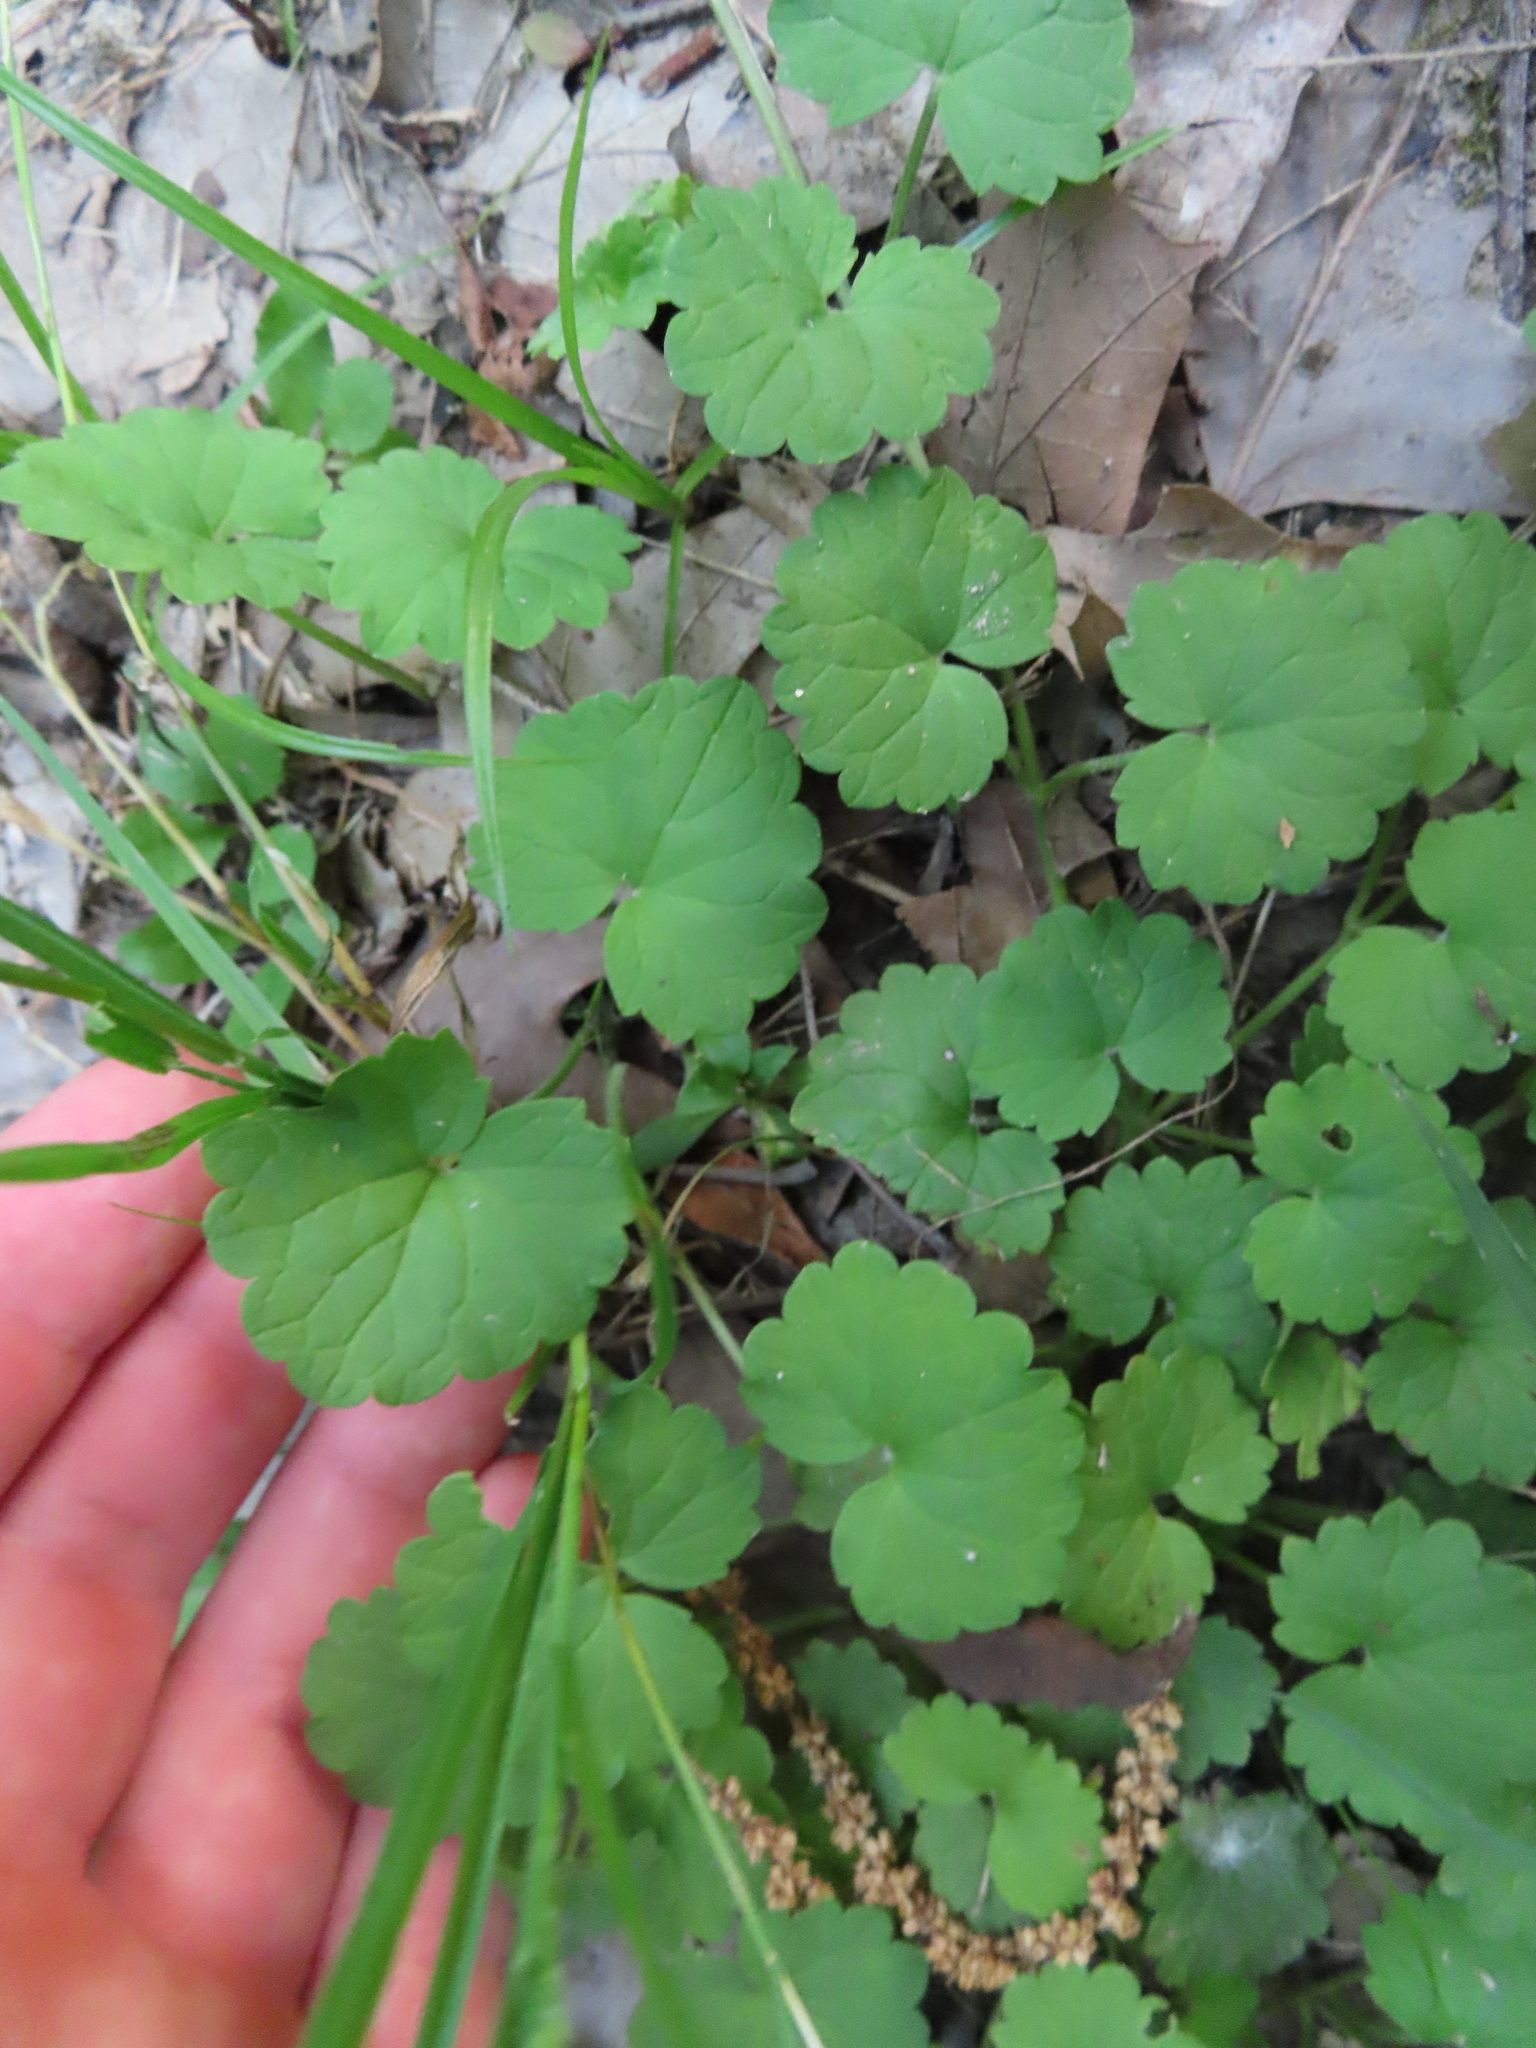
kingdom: Plantae
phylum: Tracheophyta
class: Magnoliopsida
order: Lamiales
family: Lamiaceae
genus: Glechoma
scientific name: Glechoma hederacea
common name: Ground ivy
